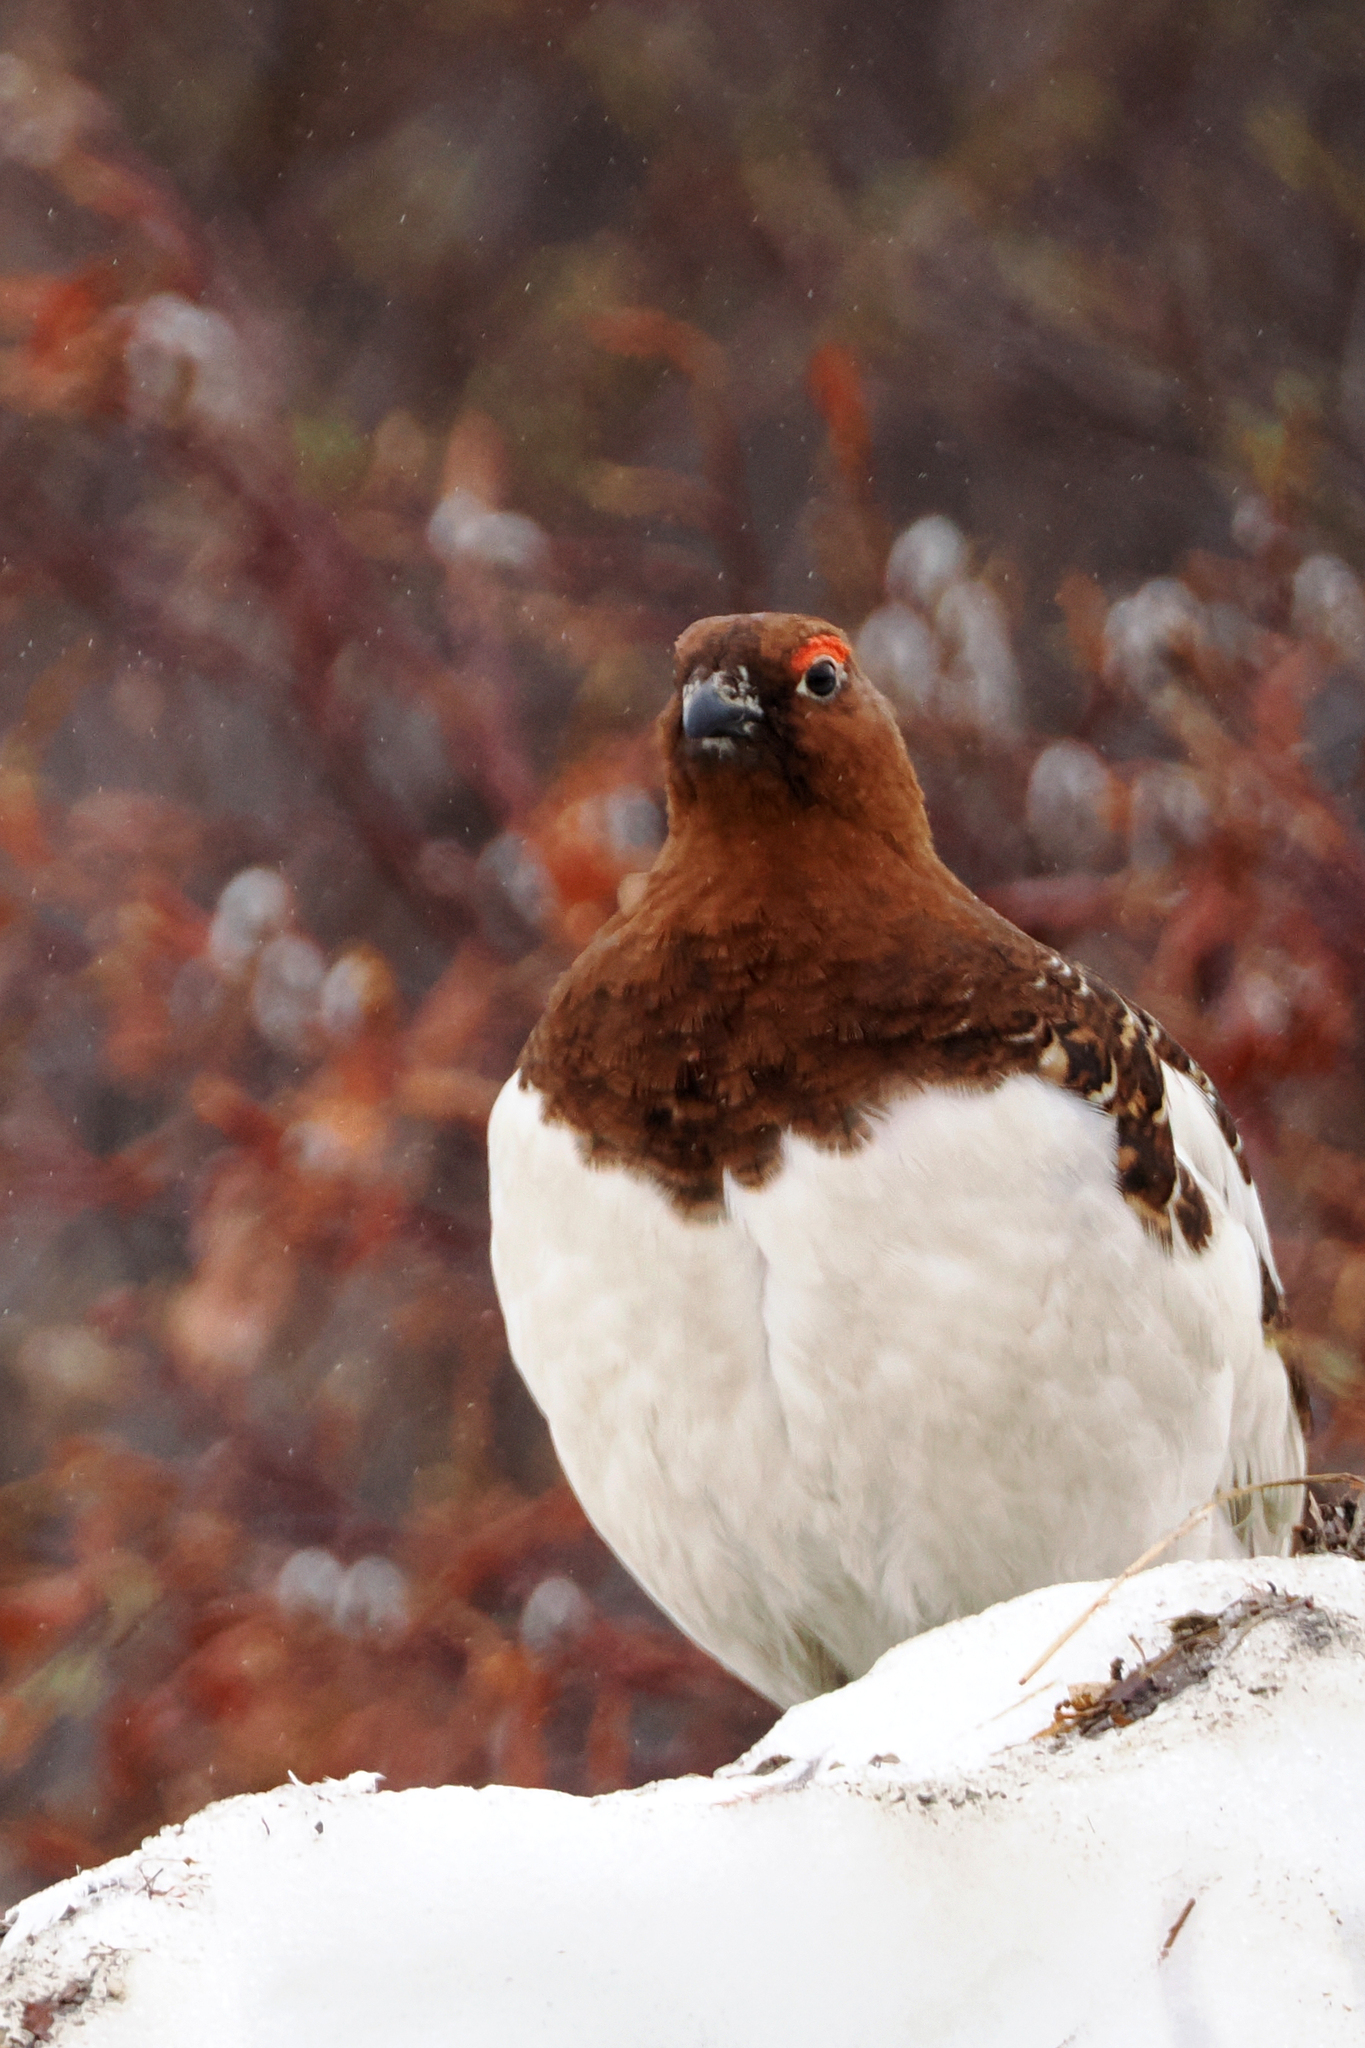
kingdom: Animalia
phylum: Chordata
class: Aves
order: Galliformes
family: Phasianidae
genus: Lagopus
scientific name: Lagopus lagopus
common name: Willow ptarmigan
